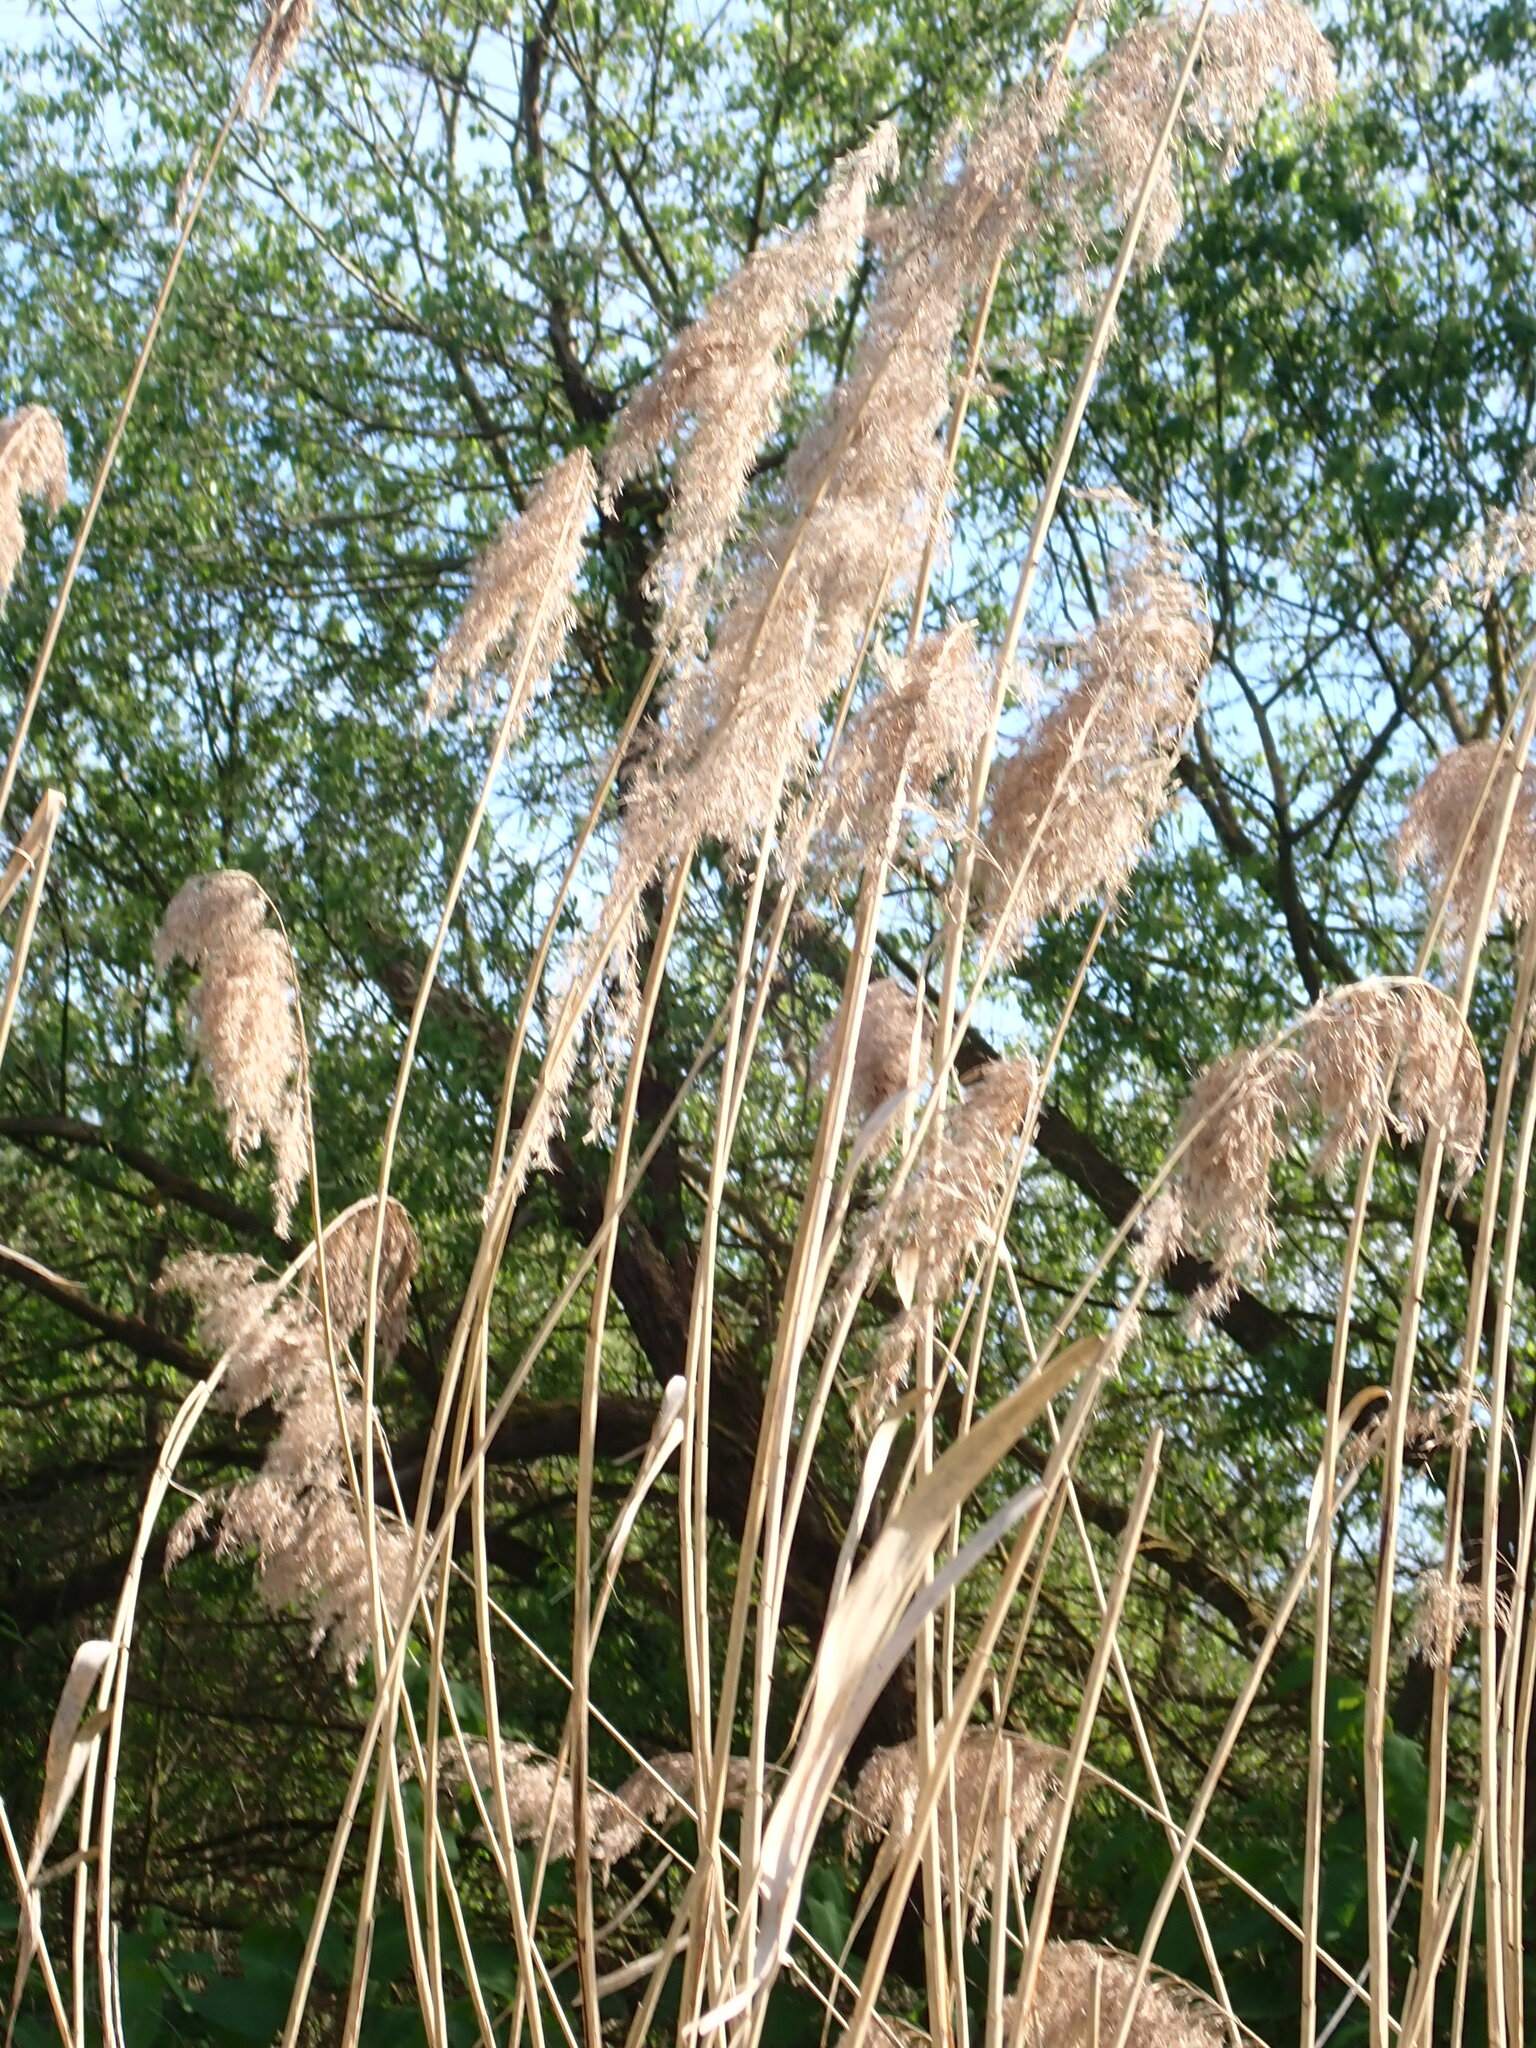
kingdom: Plantae
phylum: Tracheophyta
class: Liliopsida
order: Poales
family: Poaceae
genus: Phragmites
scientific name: Phragmites australis
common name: Common reed
